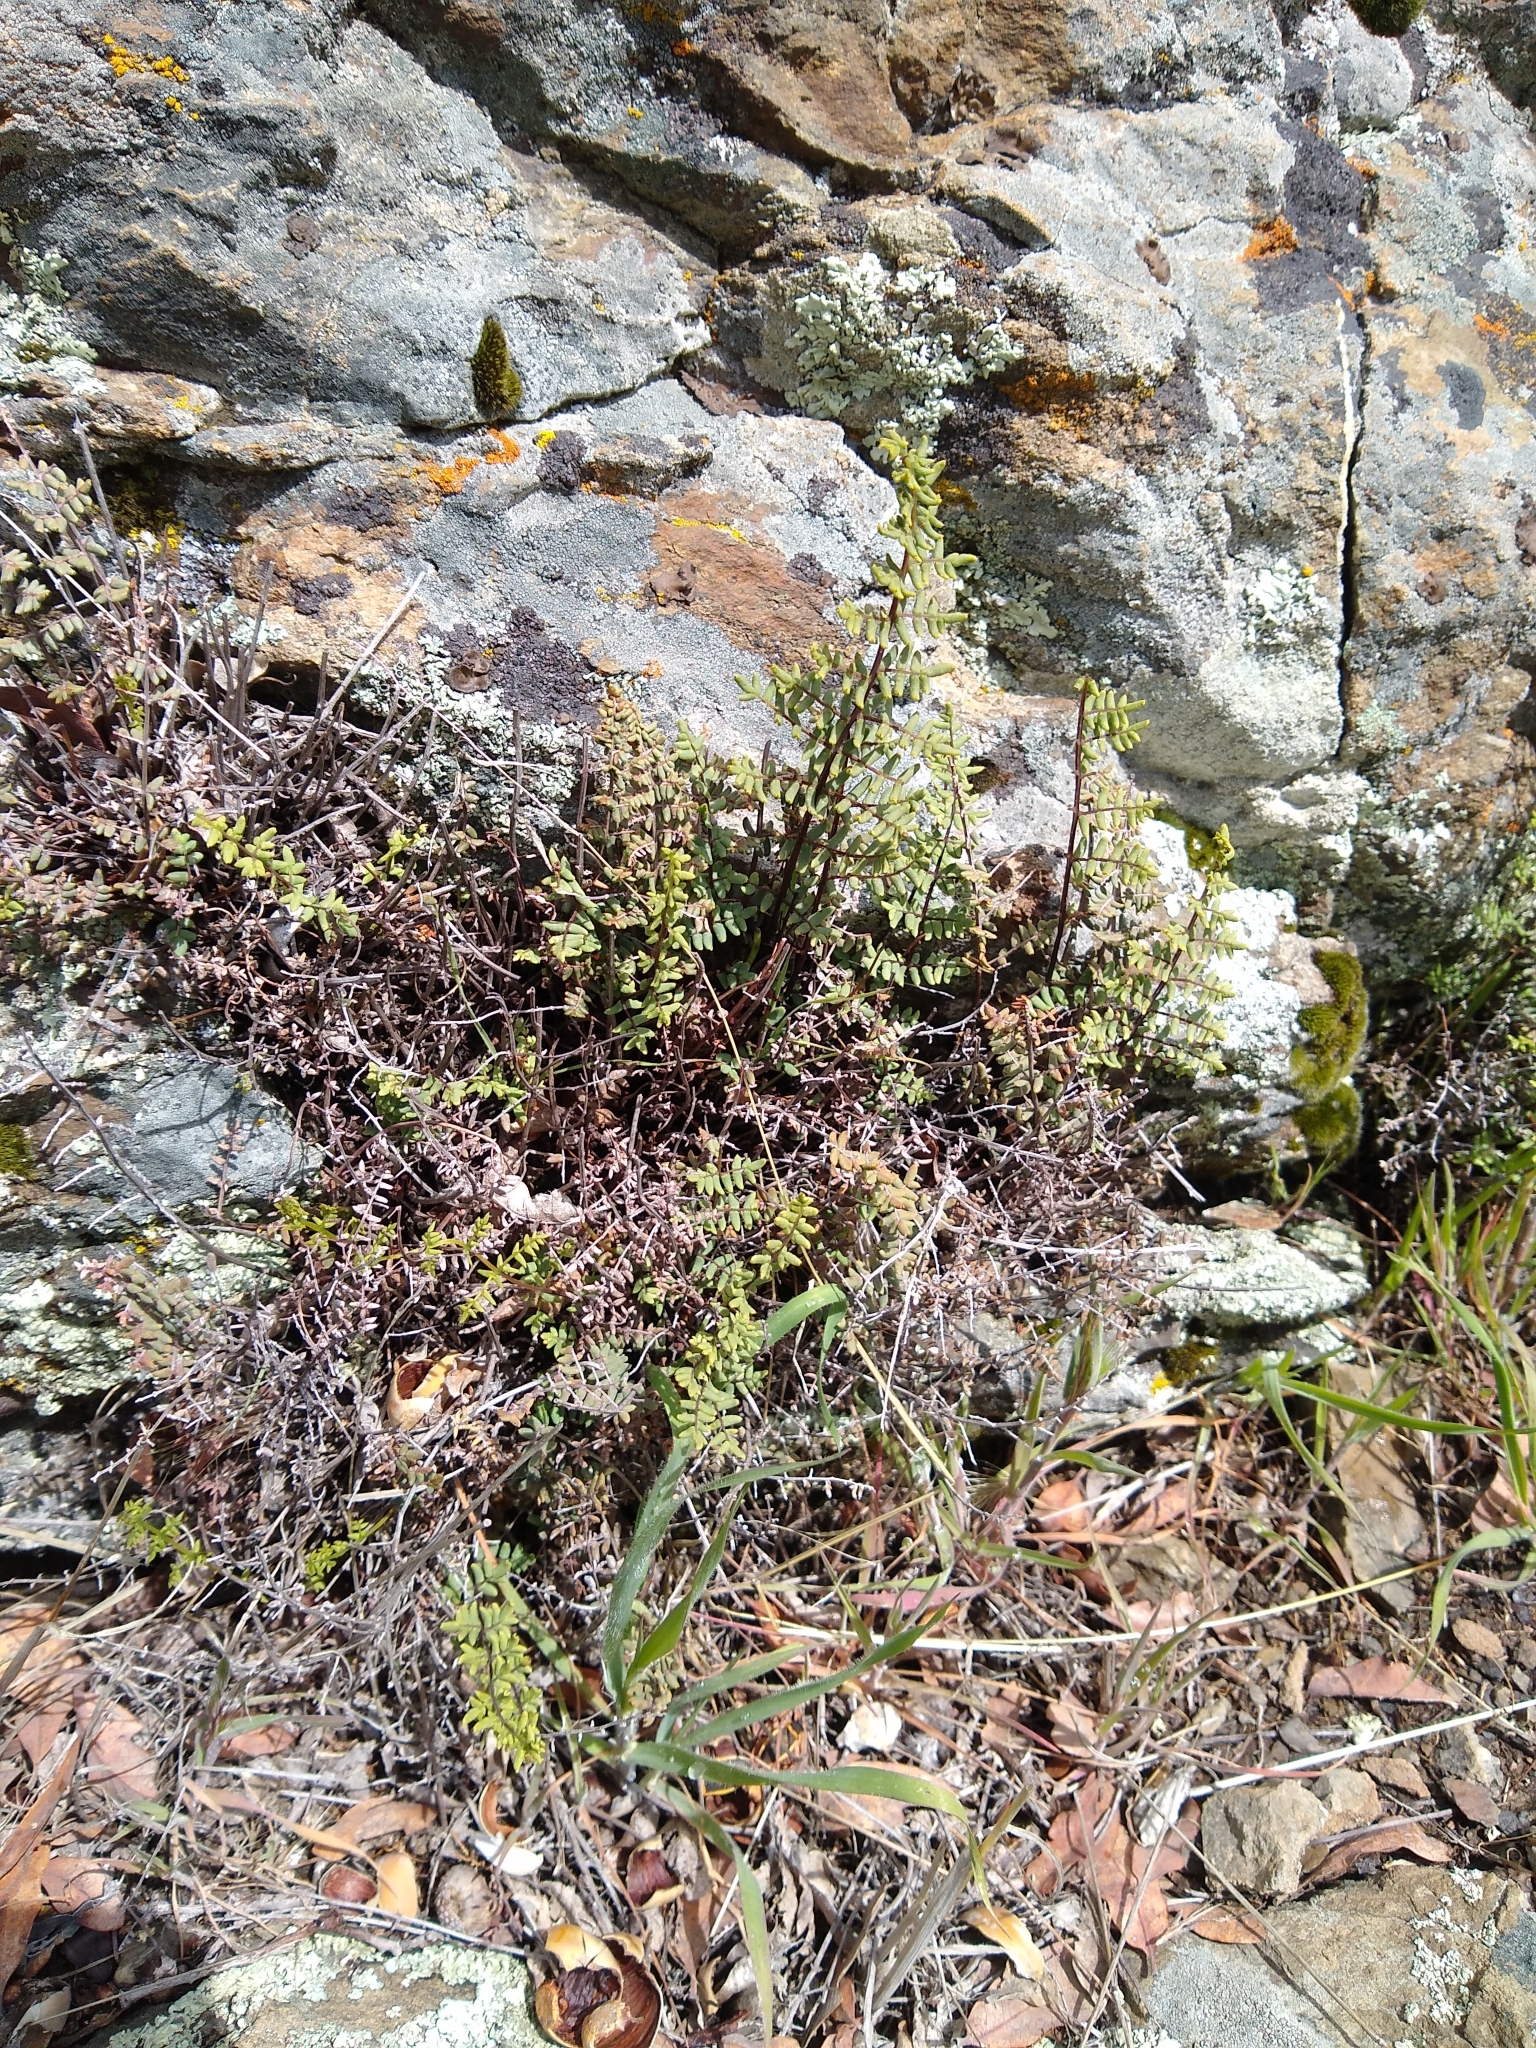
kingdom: Plantae
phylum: Tracheophyta
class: Polypodiopsida
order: Polypodiales
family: Pteridaceae
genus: Pellaea
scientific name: Pellaea mucronata
